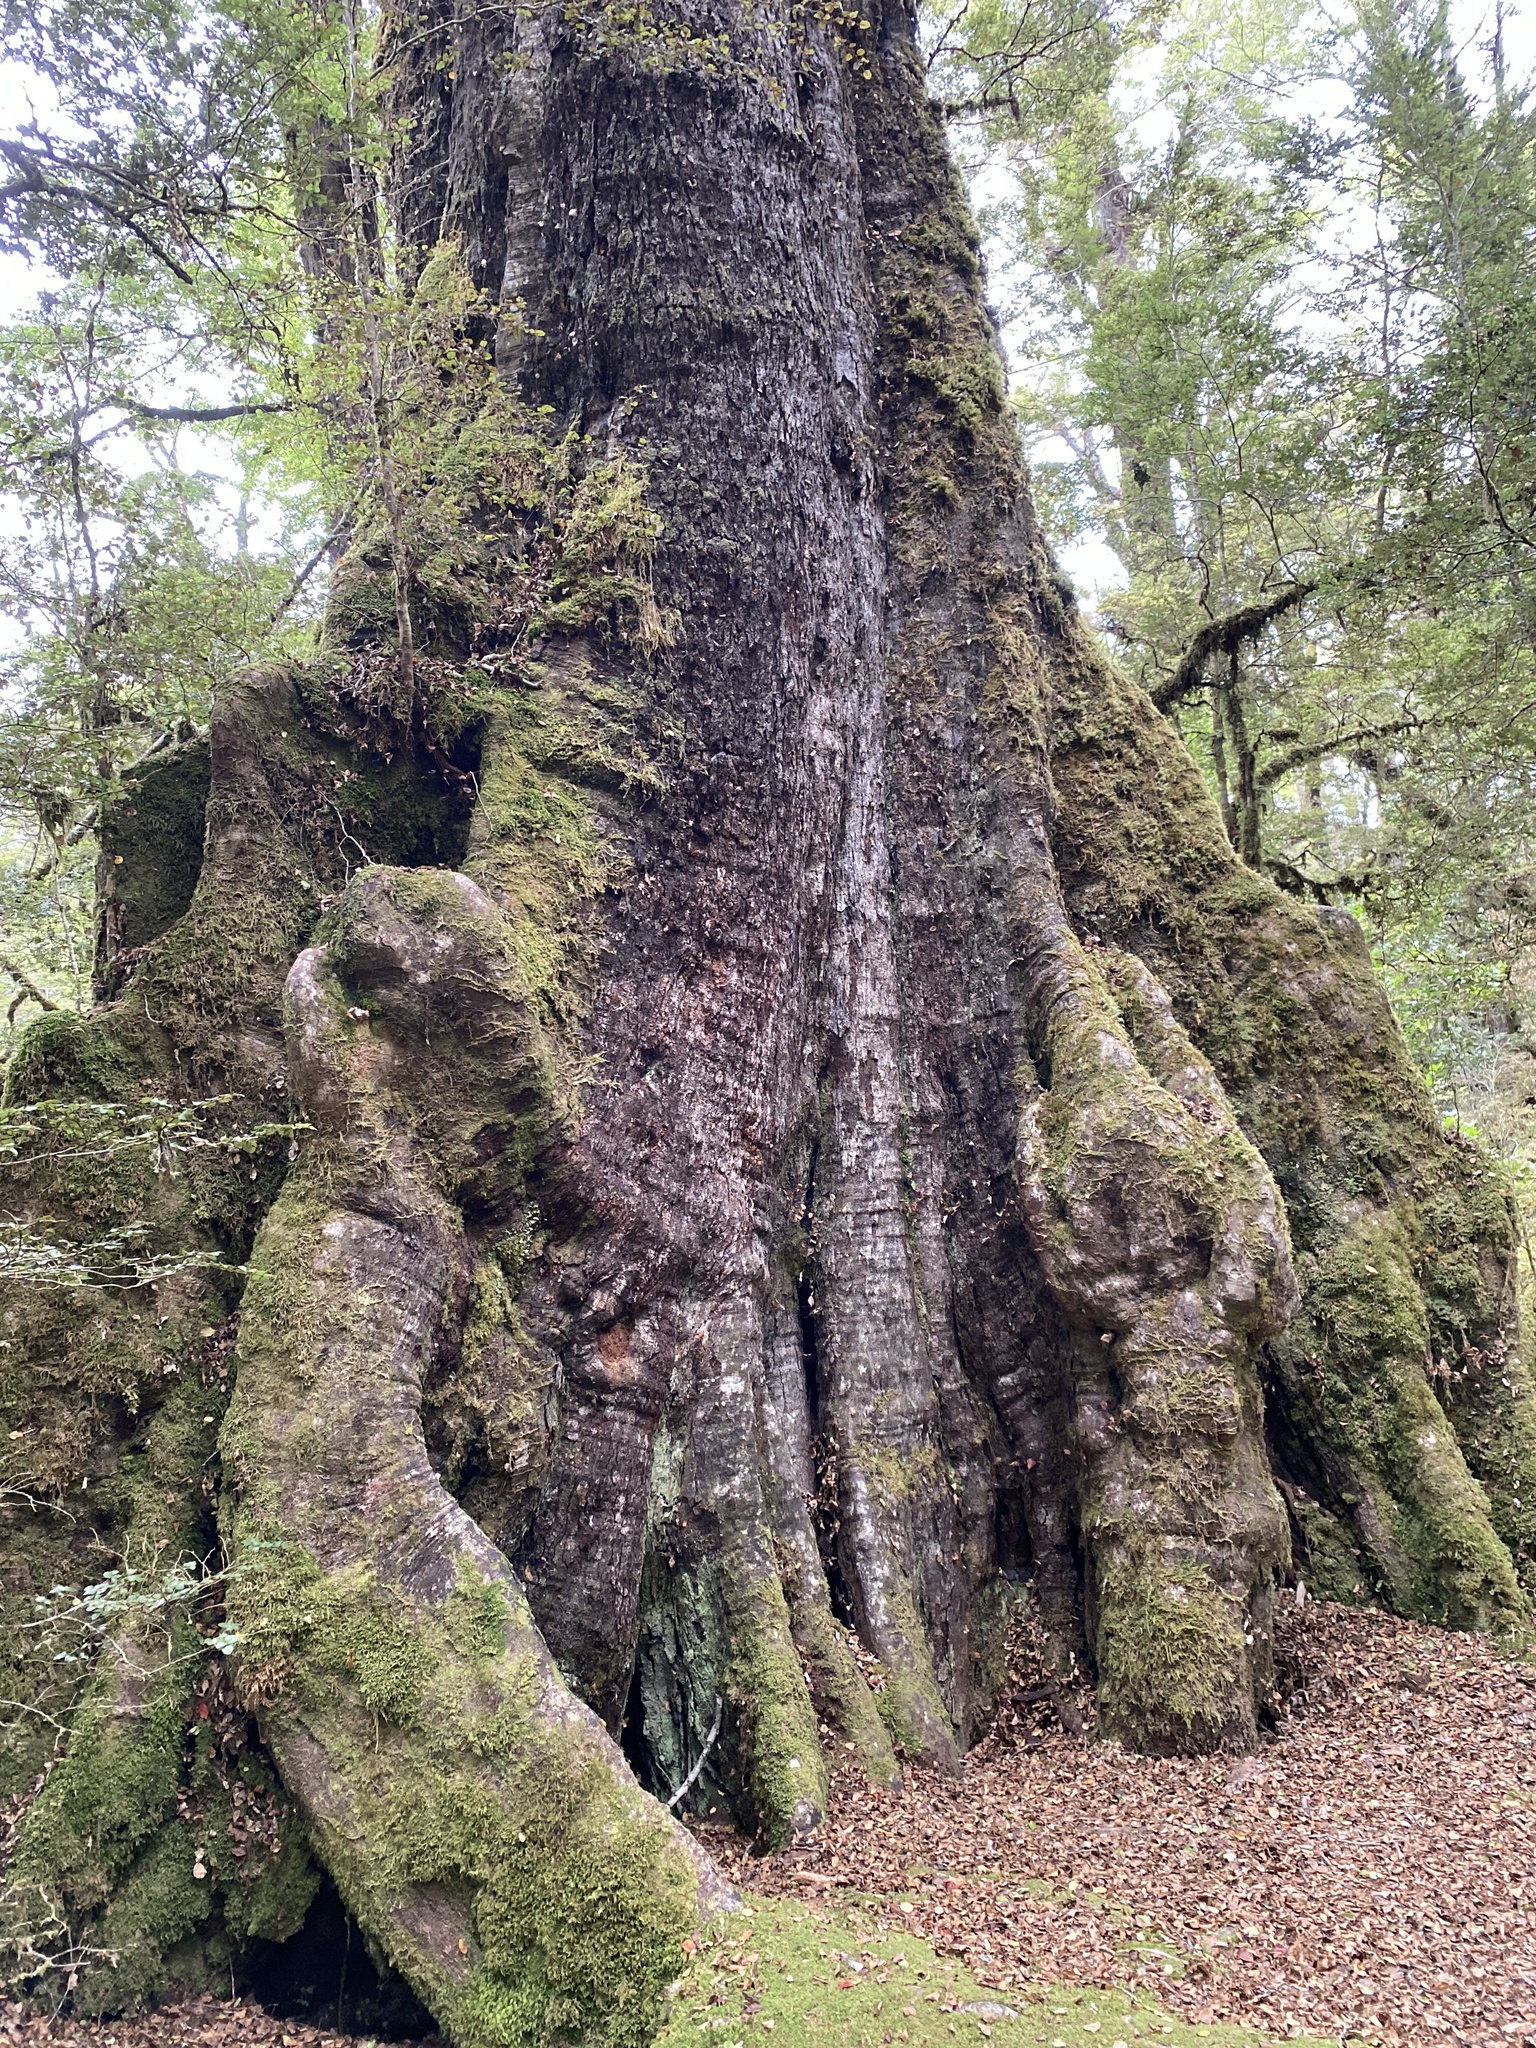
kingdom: Plantae
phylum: Tracheophyta
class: Magnoliopsida
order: Fagales
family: Nothofagaceae
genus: Nothofagus
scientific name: Nothofagus fusca
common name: Red beech
